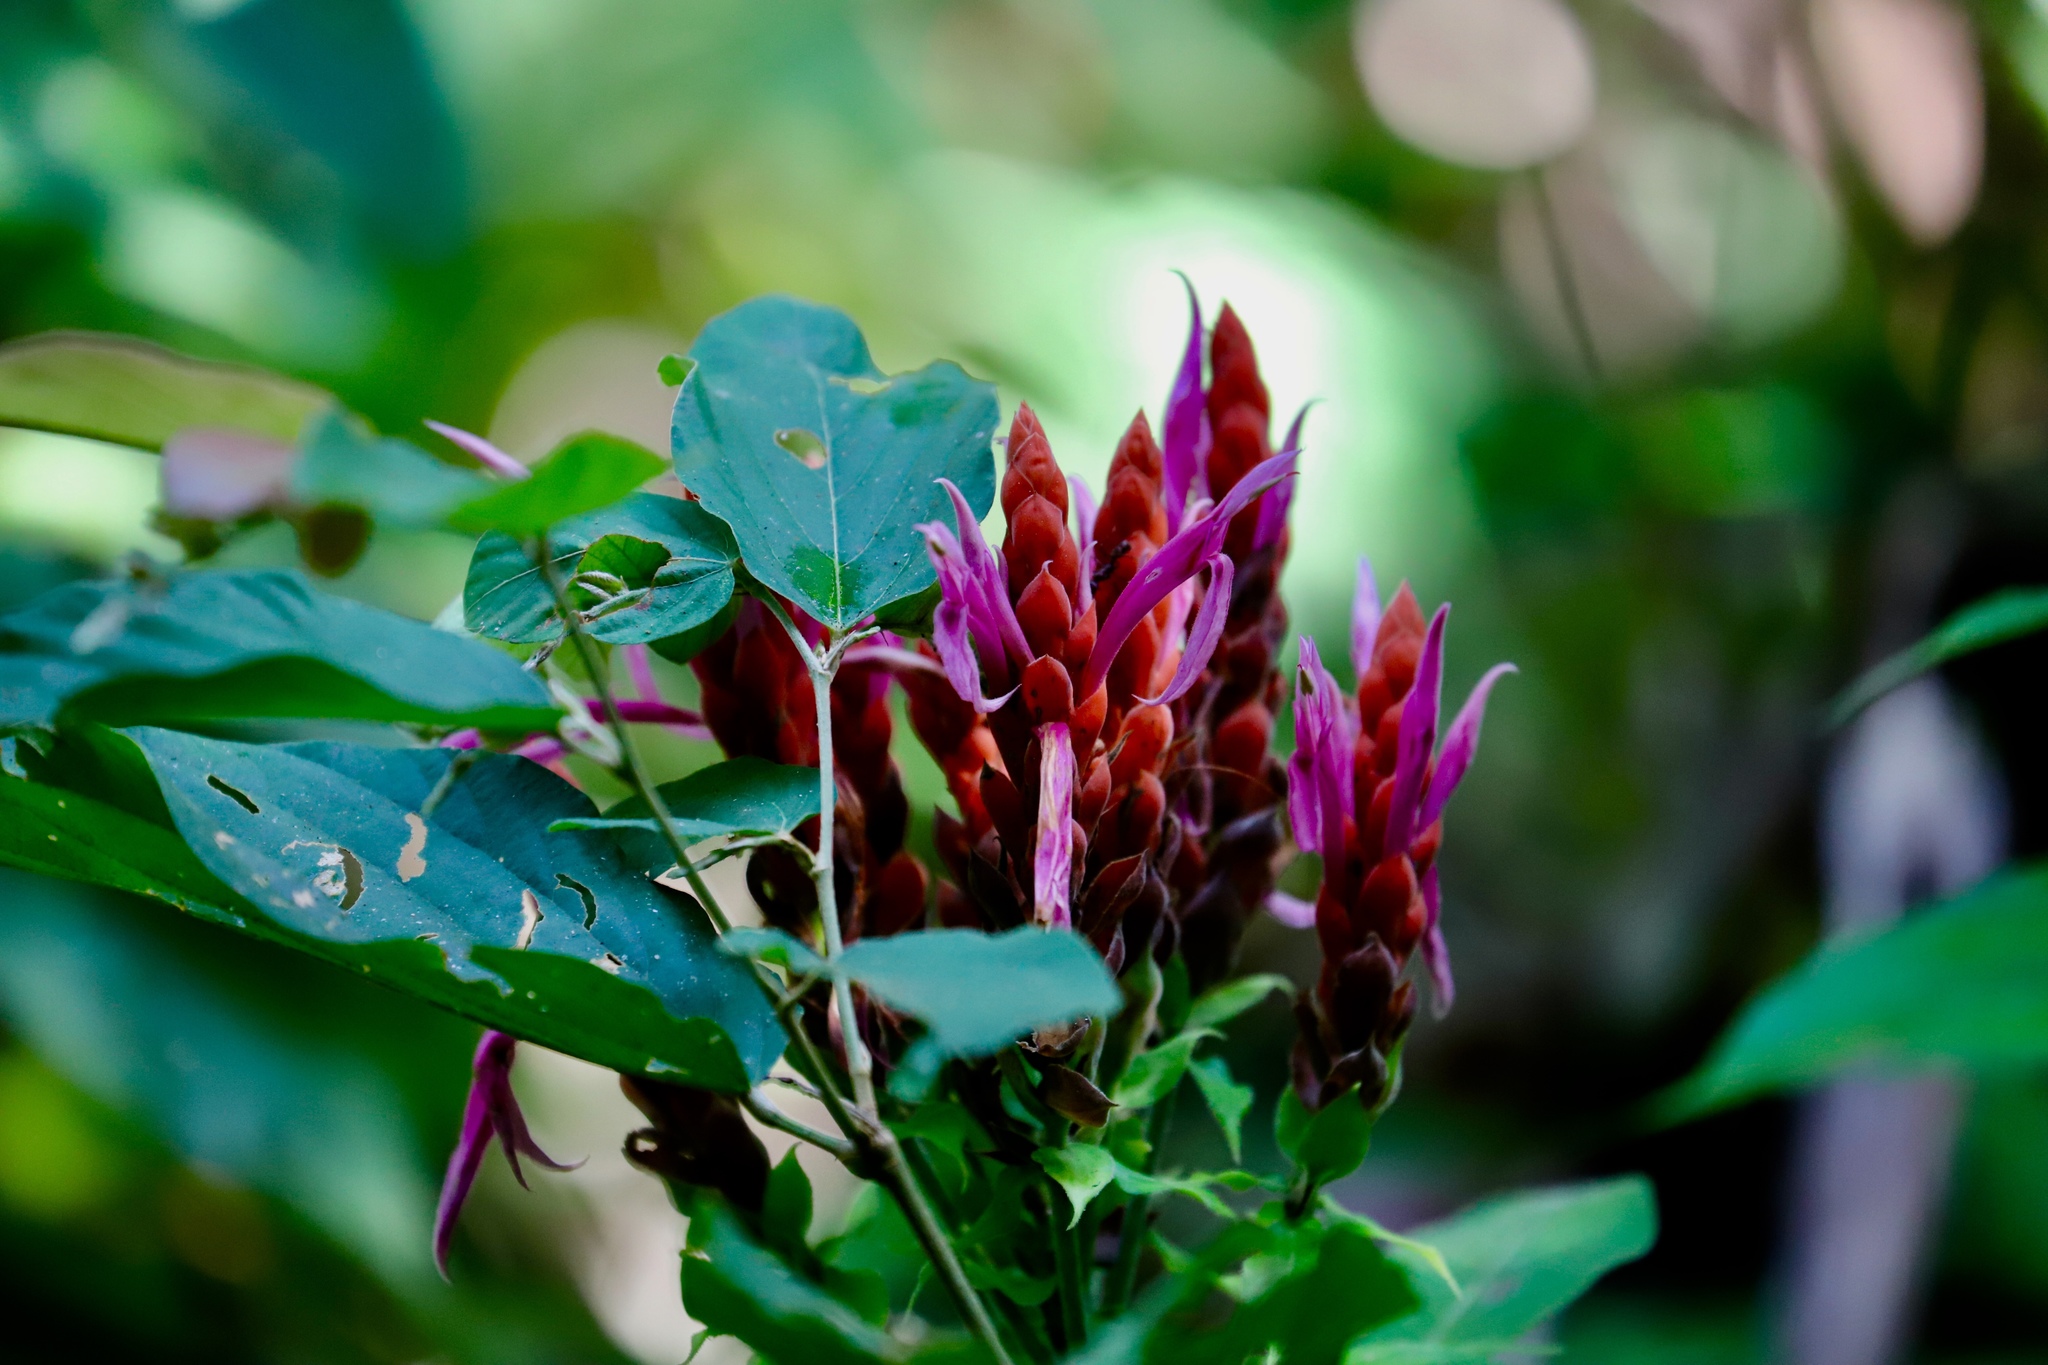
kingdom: Plantae
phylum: Tracheophyta
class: Magnoliopsida
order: Lamiales
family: Acanthaceae
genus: Aphelandra
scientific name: Aphelandra sinclairiana
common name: Coral aphelandra
